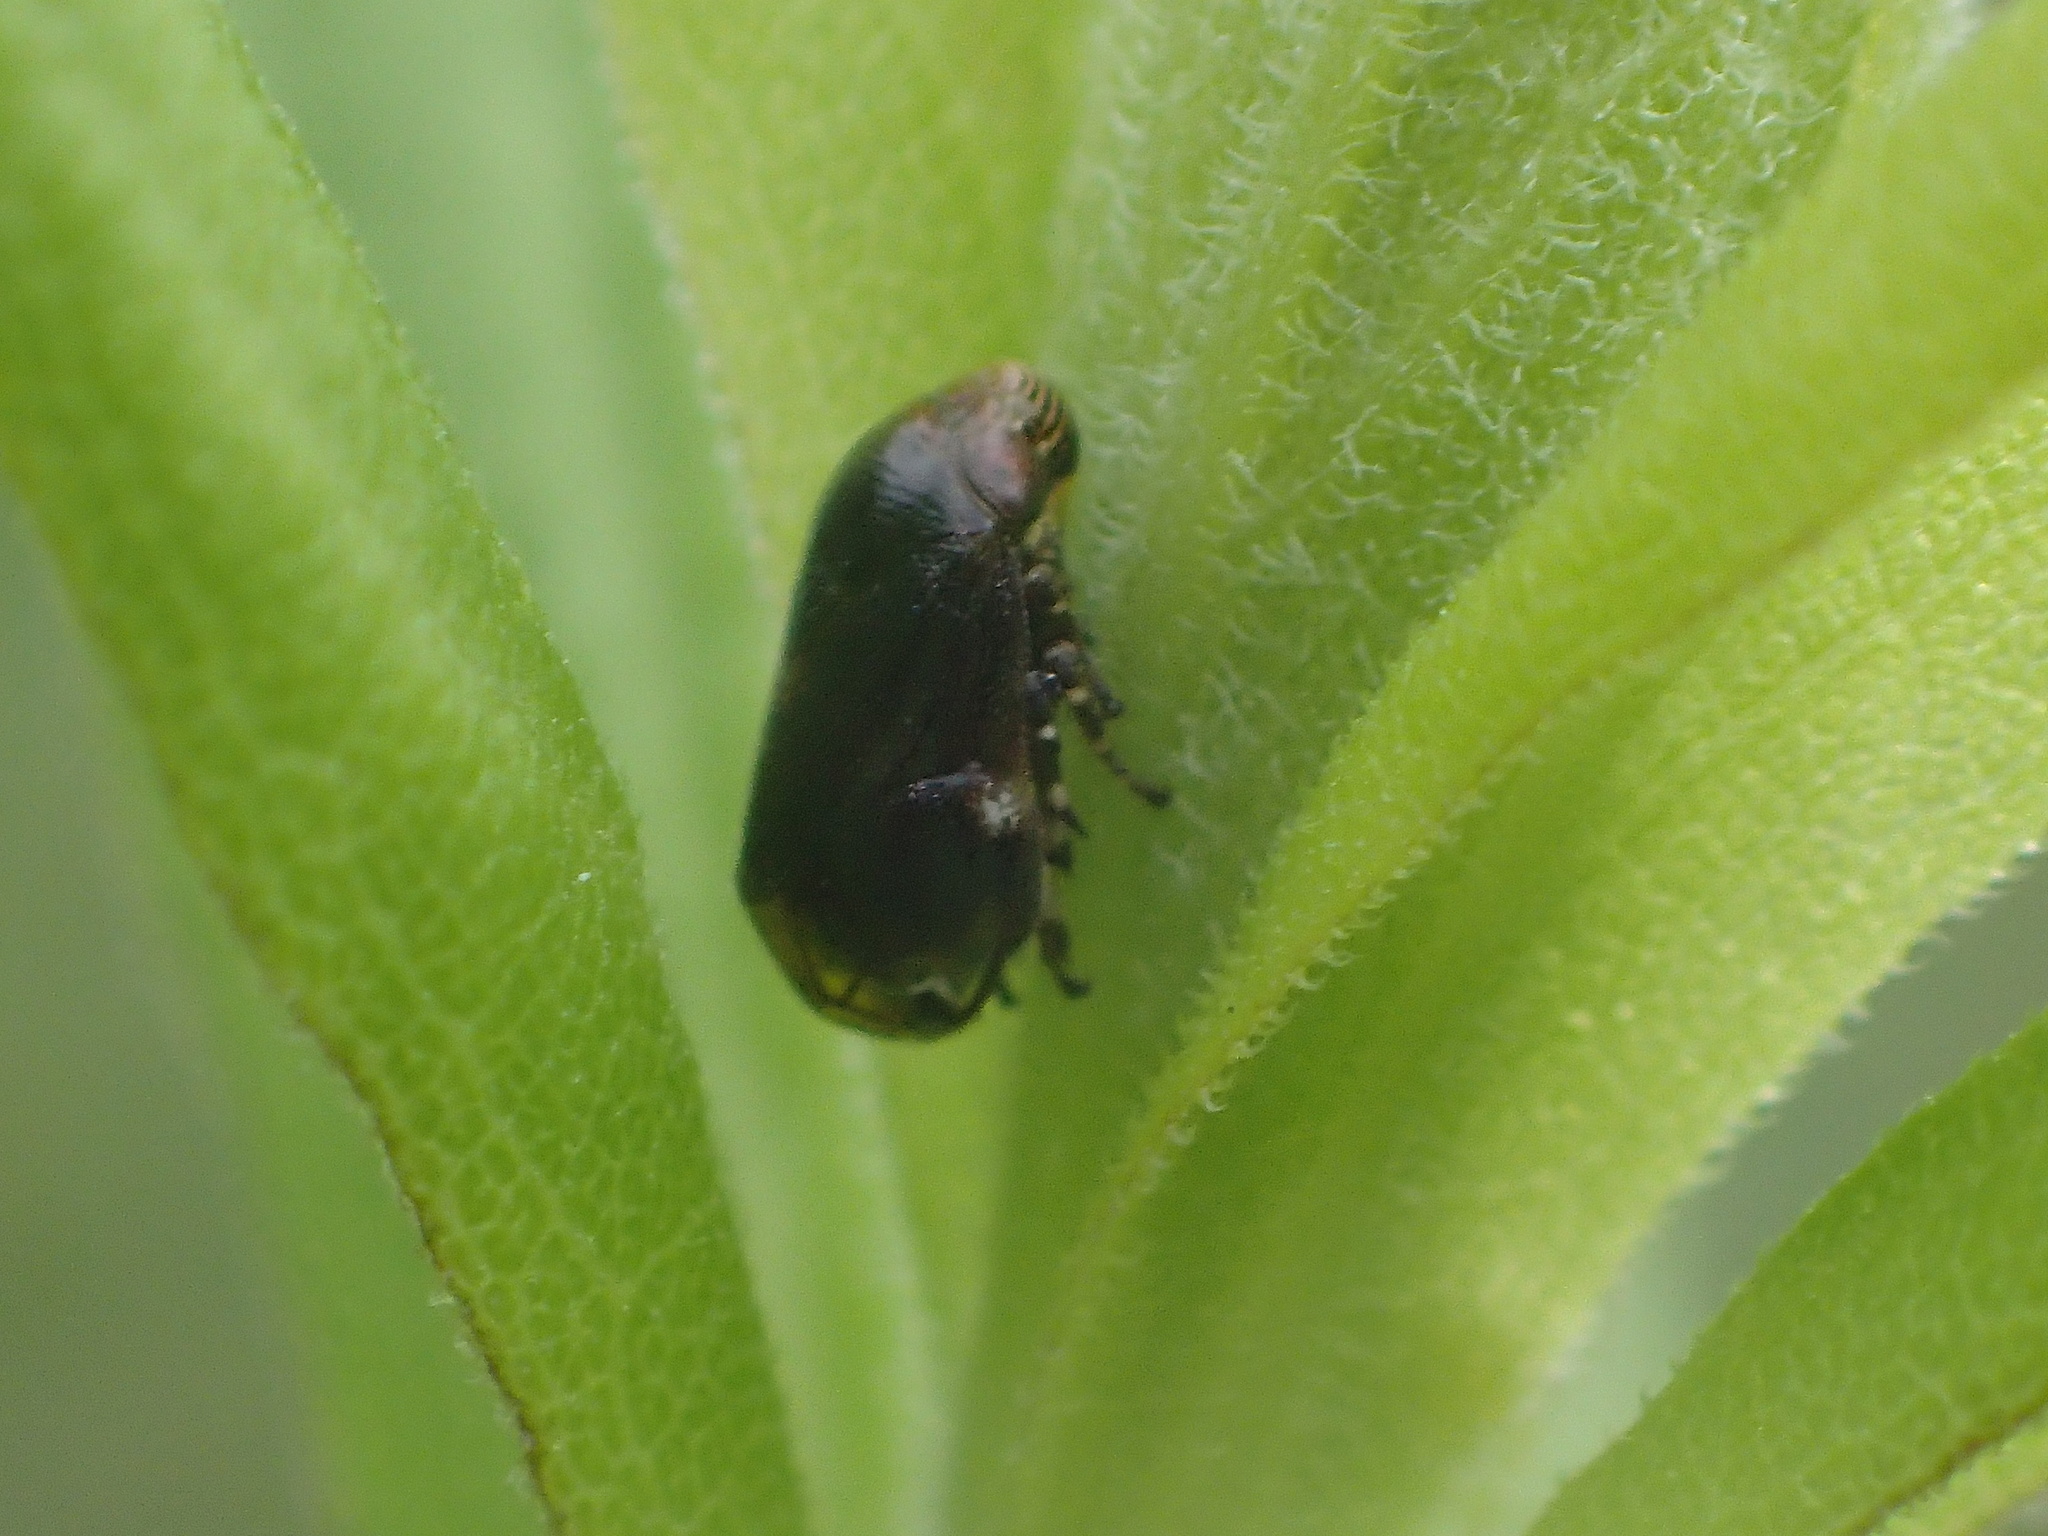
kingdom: Animalia
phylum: Arthropoda
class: Insecta
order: Hemiptera
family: Clastopteridae
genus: Clastoptera
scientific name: Clastoptera xanthocephala
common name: Sunflower spittlebug
